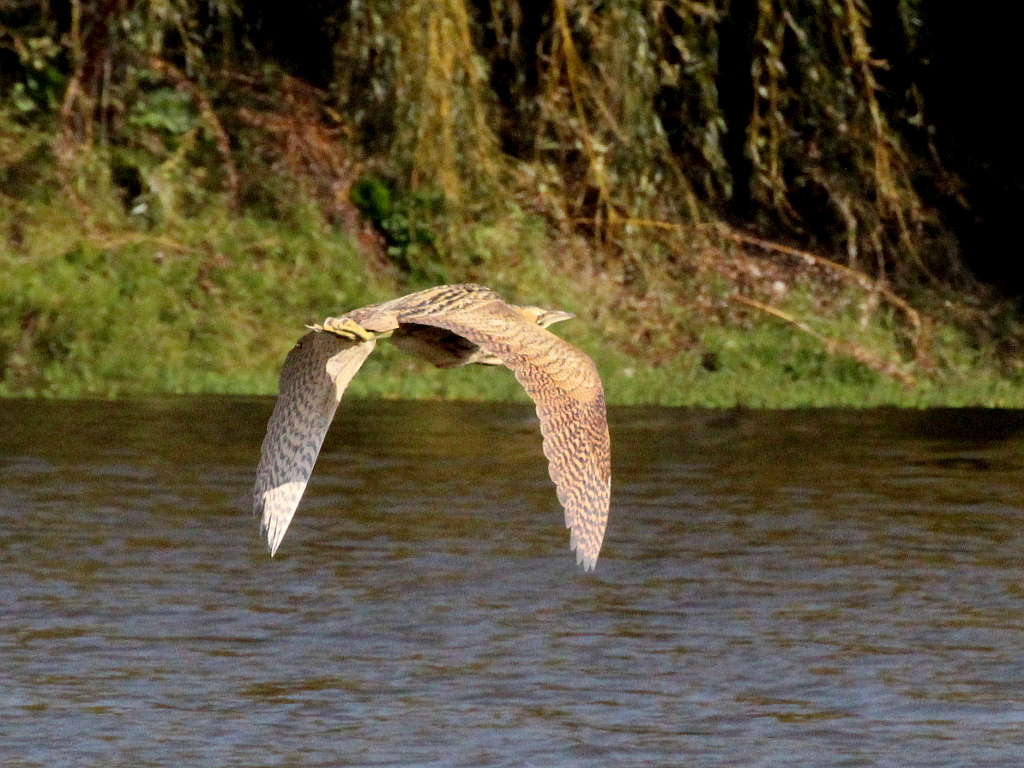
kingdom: Animalia
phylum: Chordata
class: Aves
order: Pelecaniformes
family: Ardeidae
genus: Botaurus
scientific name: Botaurus stellaris
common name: Eurasian bittern
